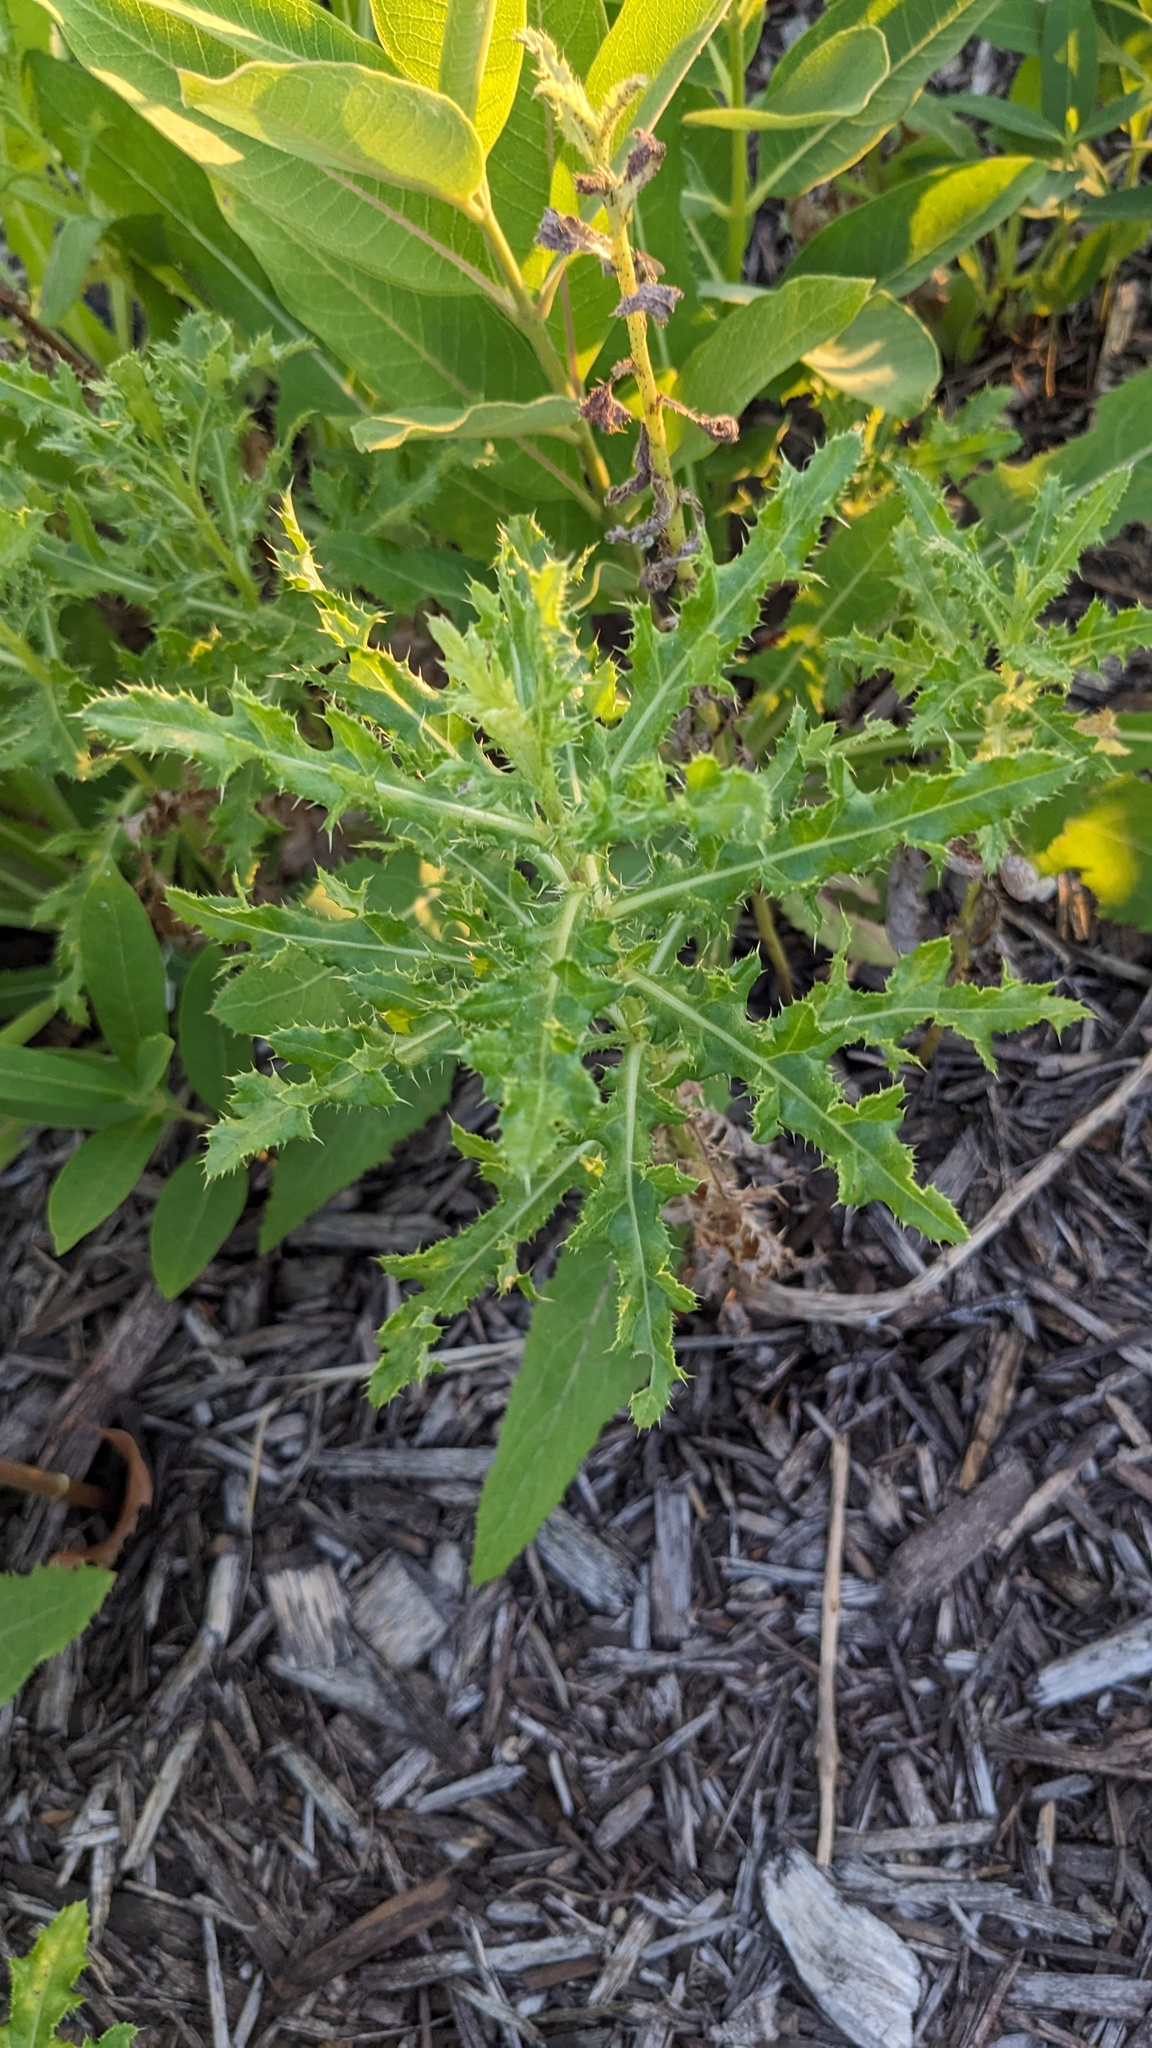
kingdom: Plantae
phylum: Tracheophyta
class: Magnoliopsida
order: Asterales
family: Asteraceae
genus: Cirsium
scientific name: Cirsium arvense
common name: Creeping thistle
